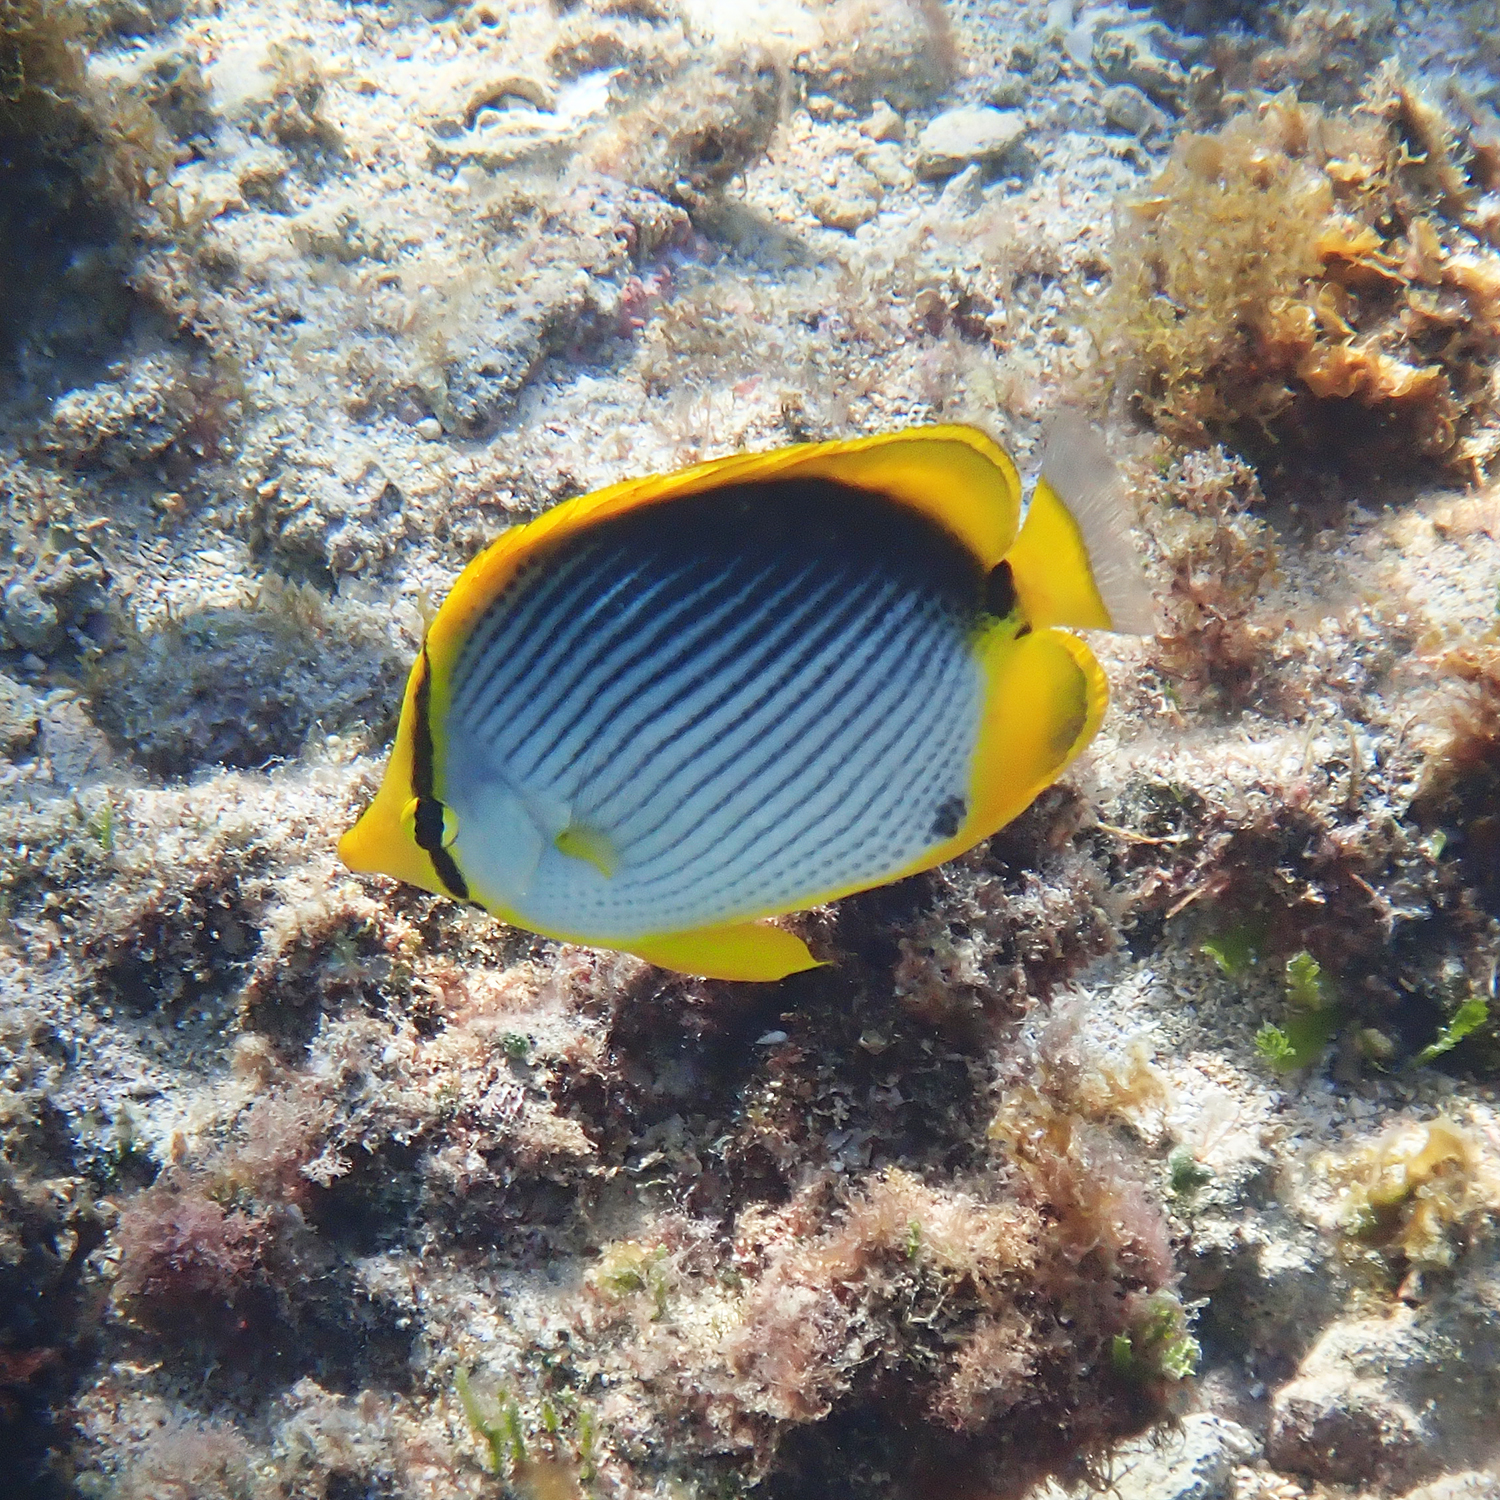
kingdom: Animalia
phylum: Chordata
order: Perciformes
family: Chaetodontidae
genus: Chaetodon
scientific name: Chaetodon melannotus
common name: Blackback butterflyfish
